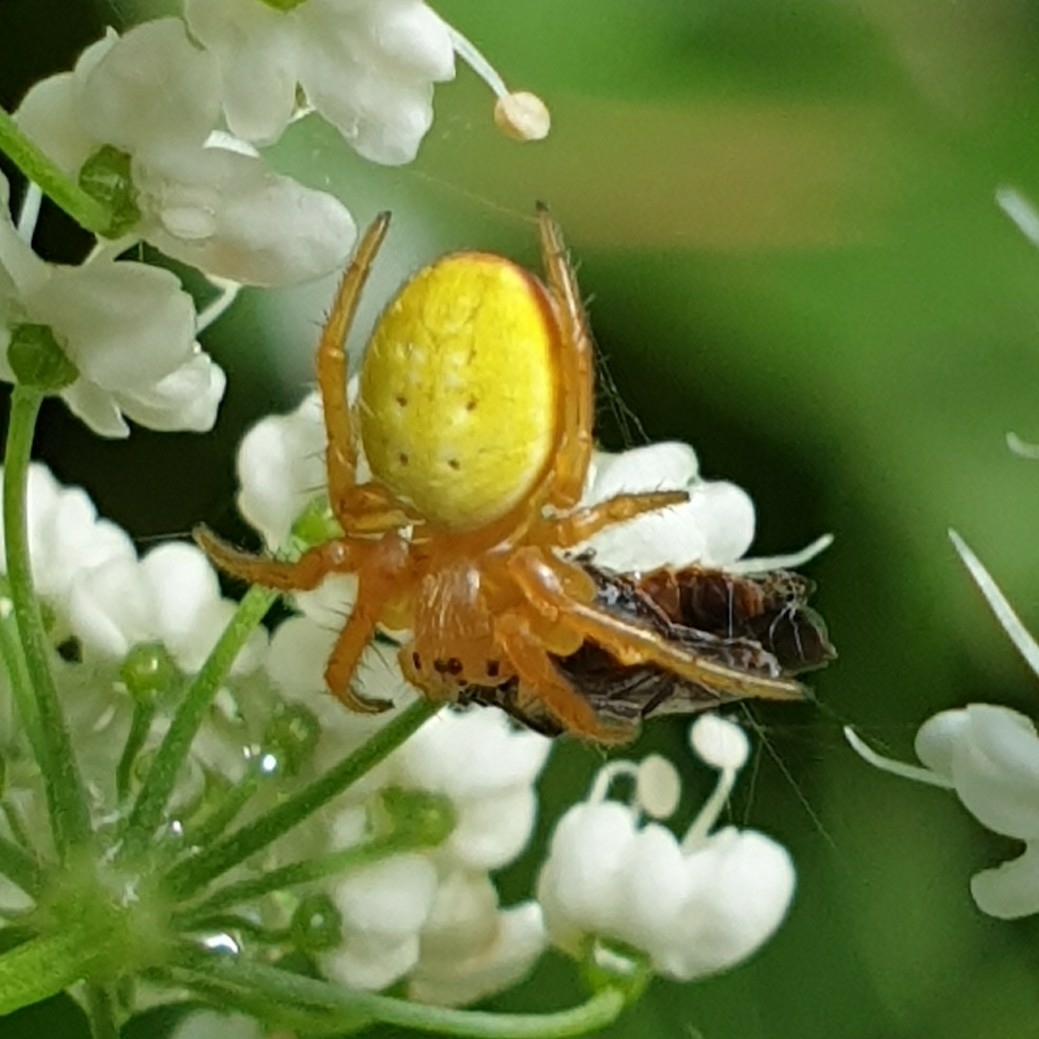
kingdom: Animalia
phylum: Arthropoda
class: Arachnida
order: Araneae
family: Araneidae
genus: Araniella
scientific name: Araniella
